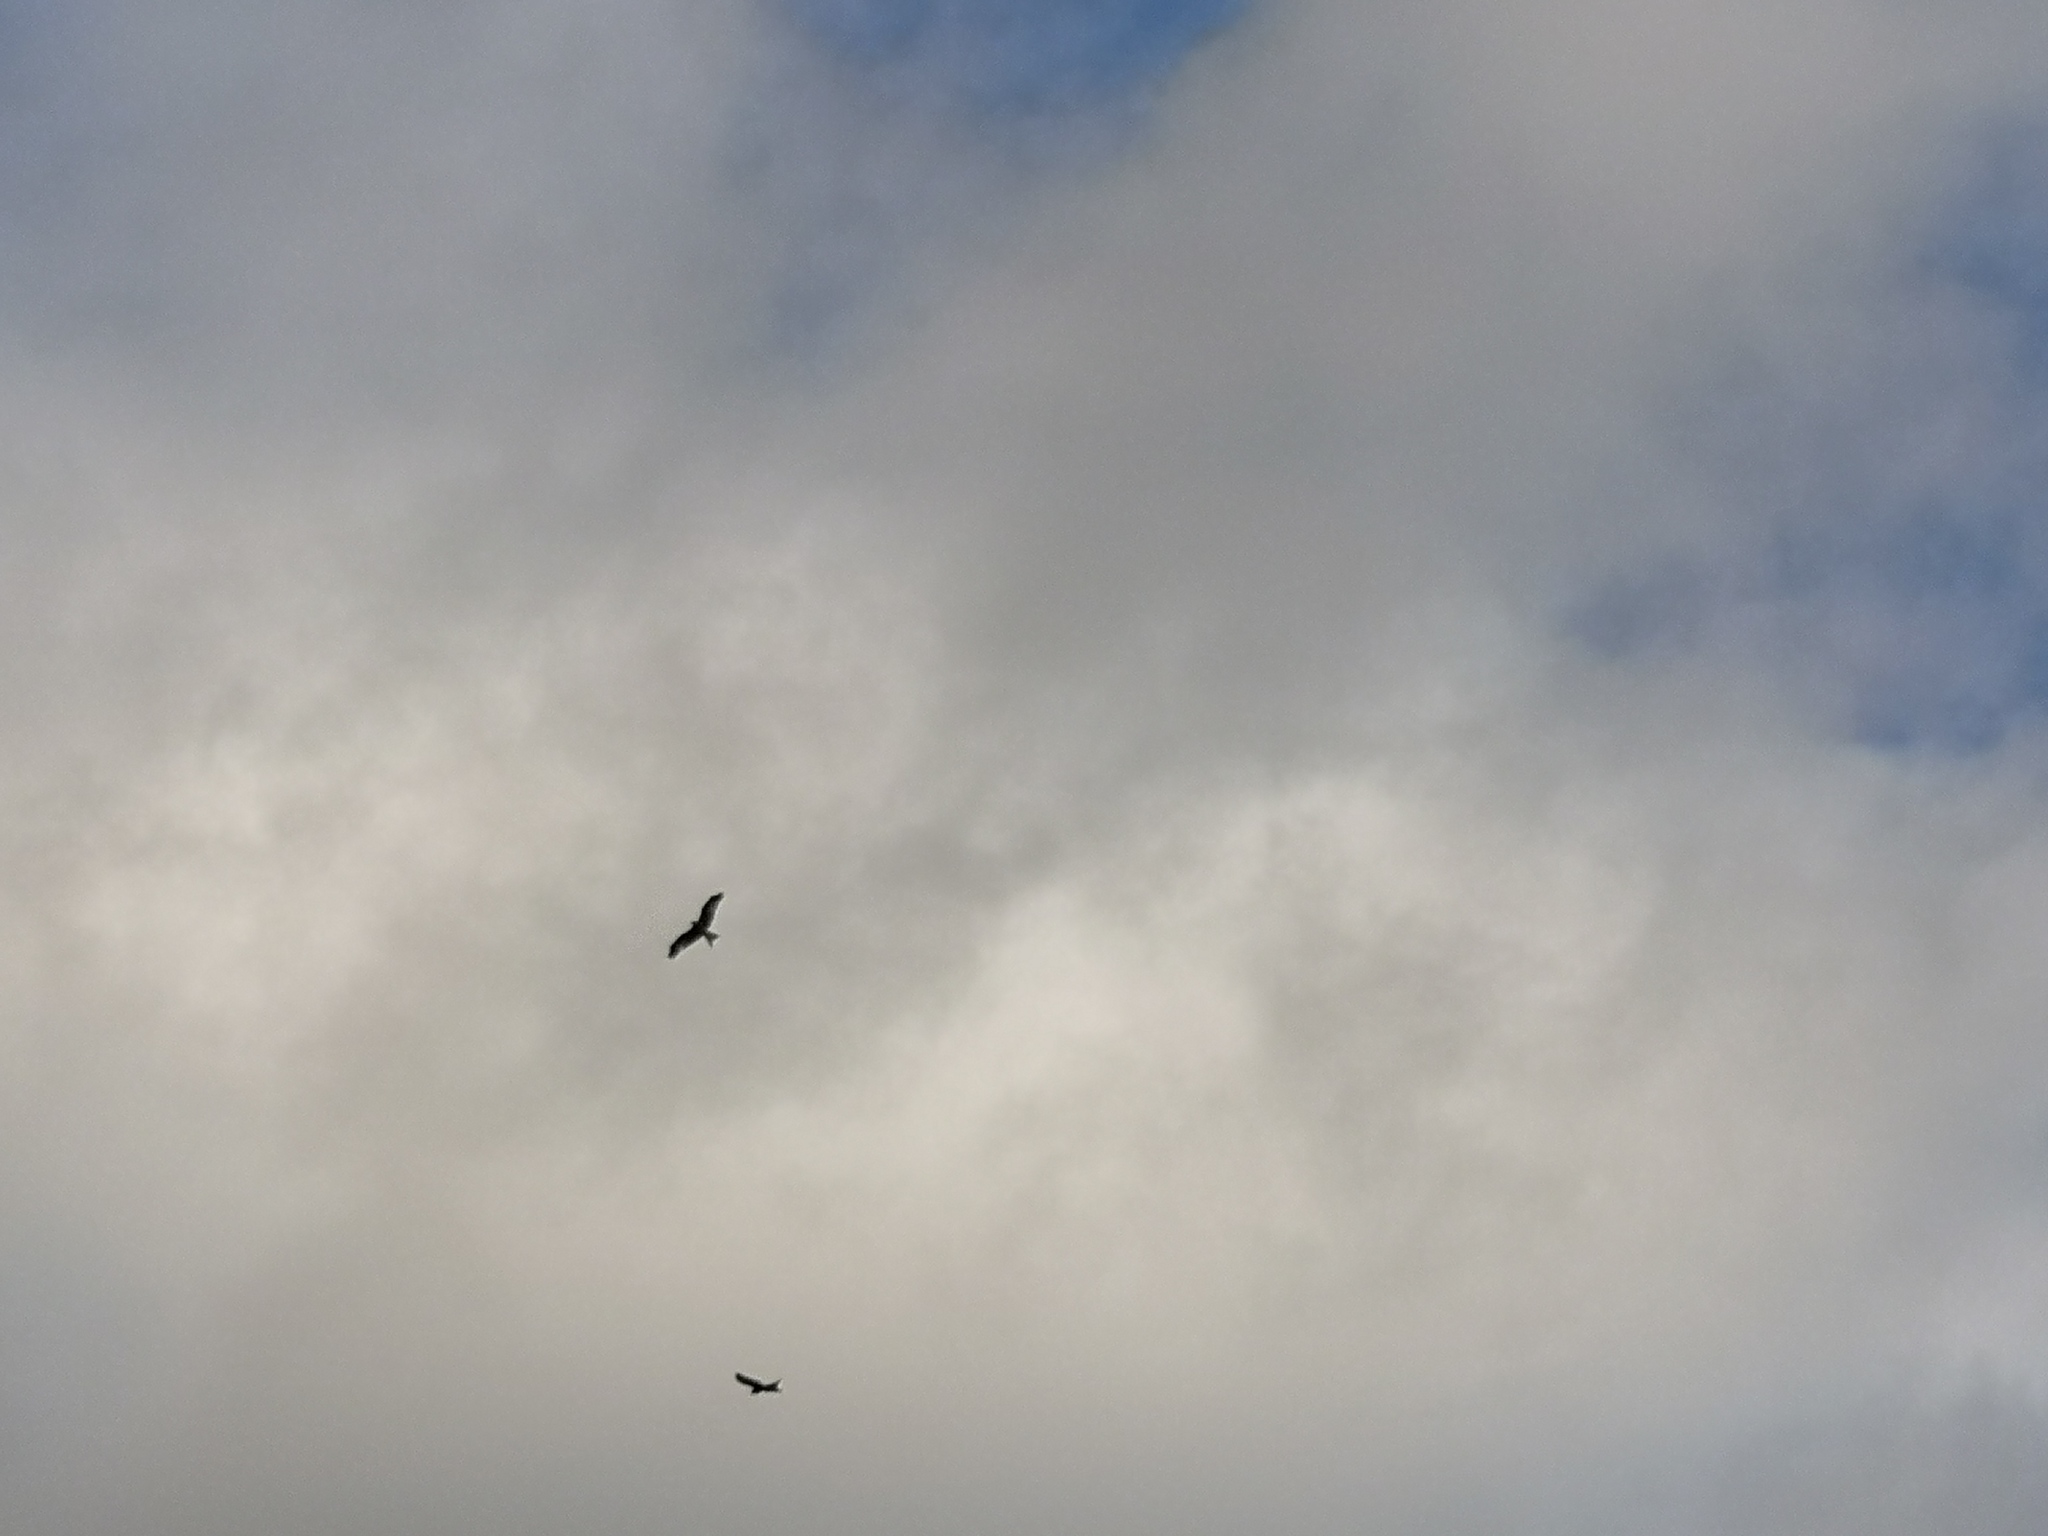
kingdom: Animalia
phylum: Chordata
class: Aves
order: Accipitriformes
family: Accipitridae
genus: Milvus
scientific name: Milvus milvus
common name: Red kite
